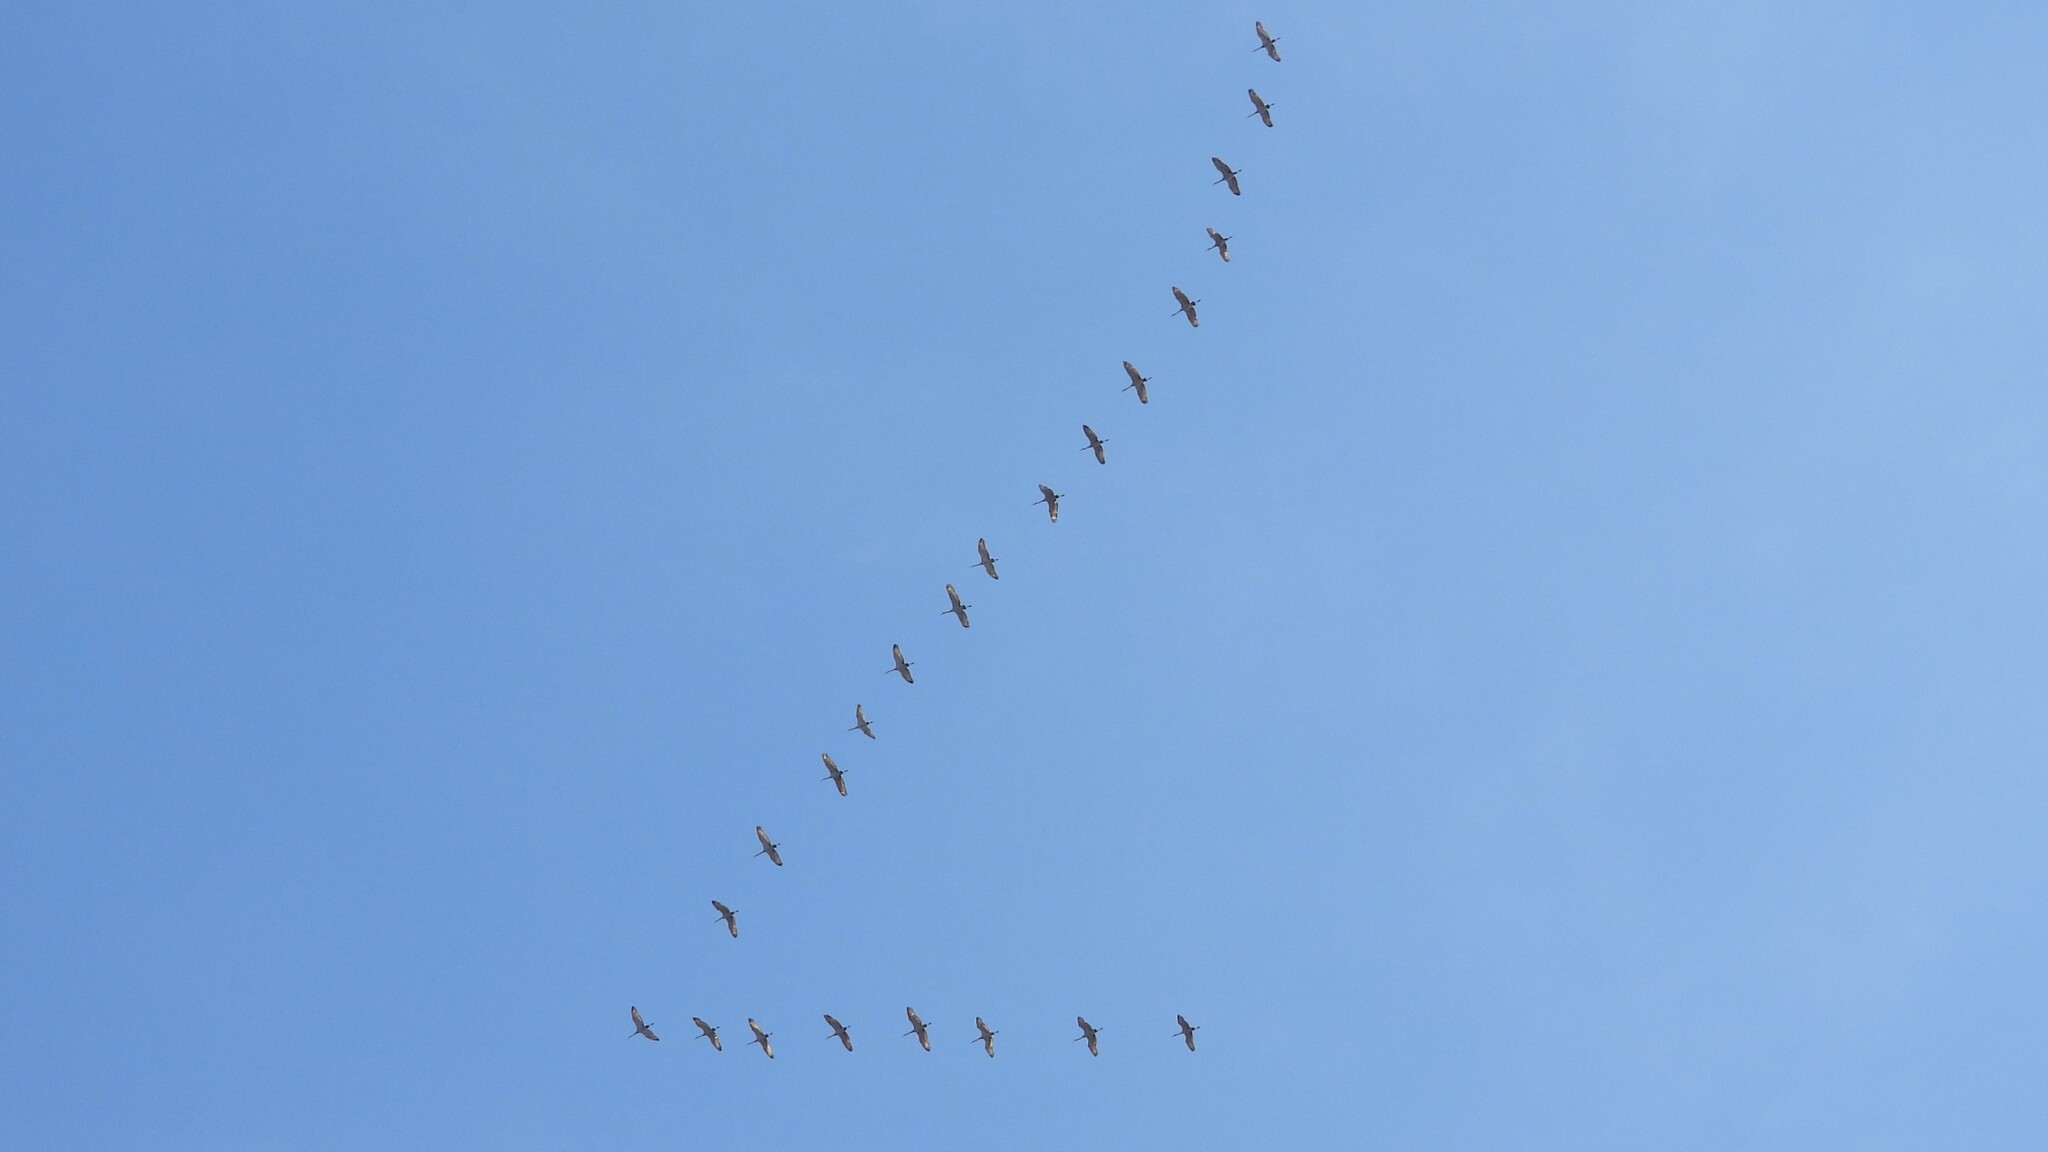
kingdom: Animalia
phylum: Chordata
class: Aves
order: Gruiformes
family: Gruidae
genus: Grus
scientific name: Grus canadensis
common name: Sandhill crane
